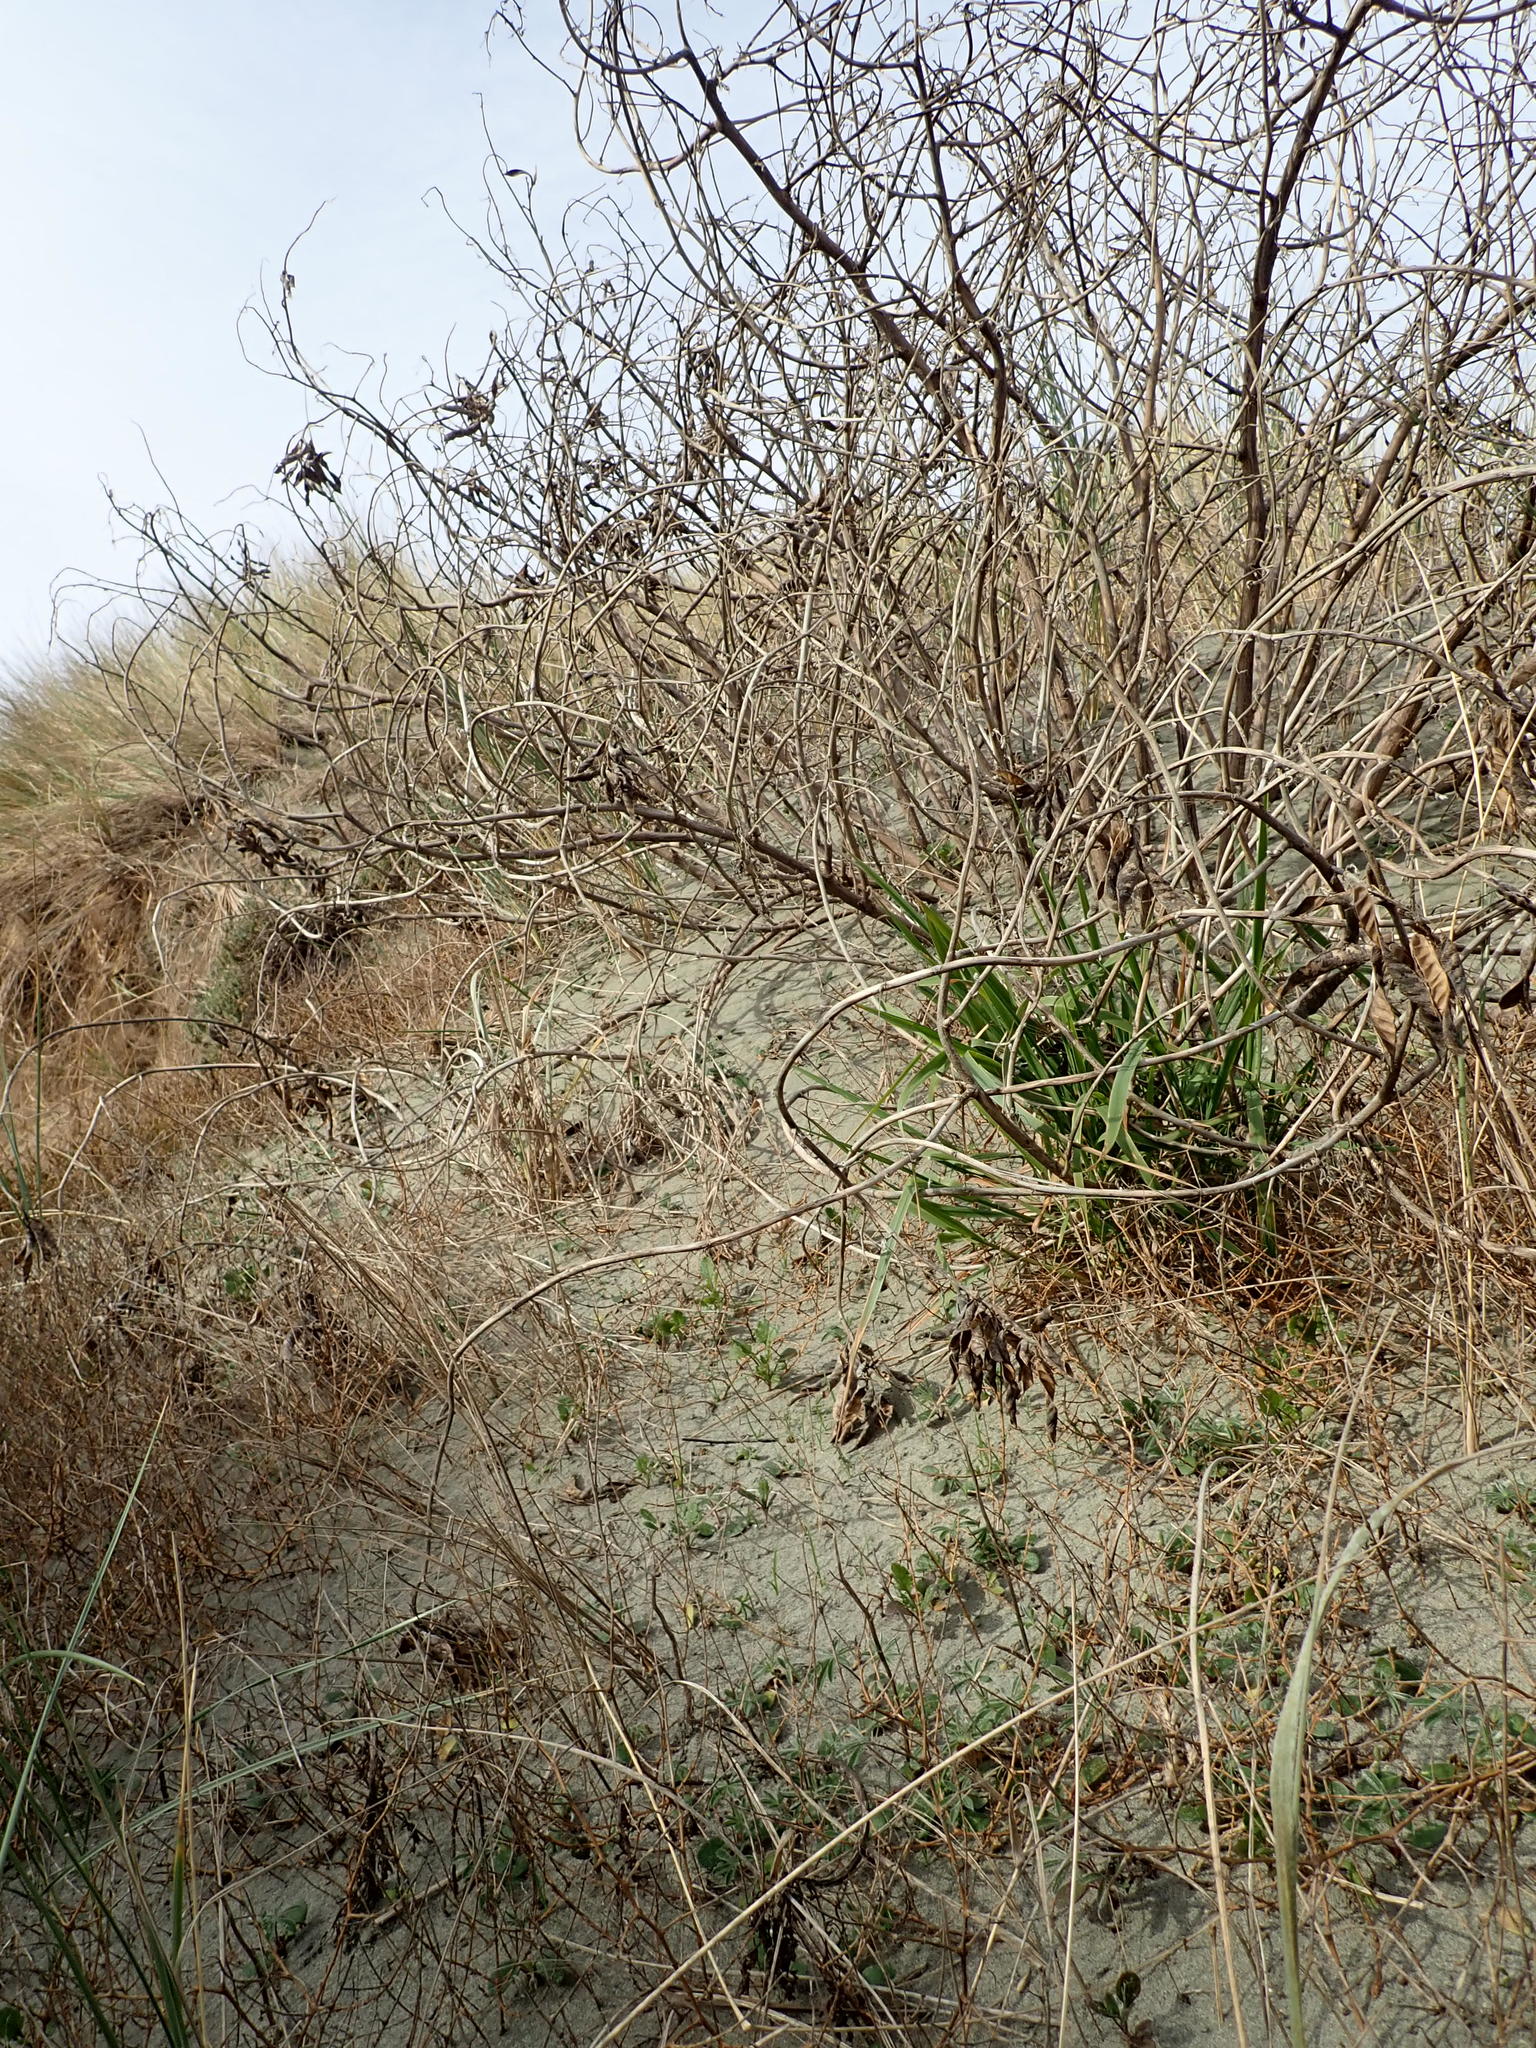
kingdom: Plantae
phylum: Tracheophyta
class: Magnoliopsida
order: Fabales
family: Fabaceae
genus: Lupinus
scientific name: Lupinus arboreus
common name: Yellow bush lupine
